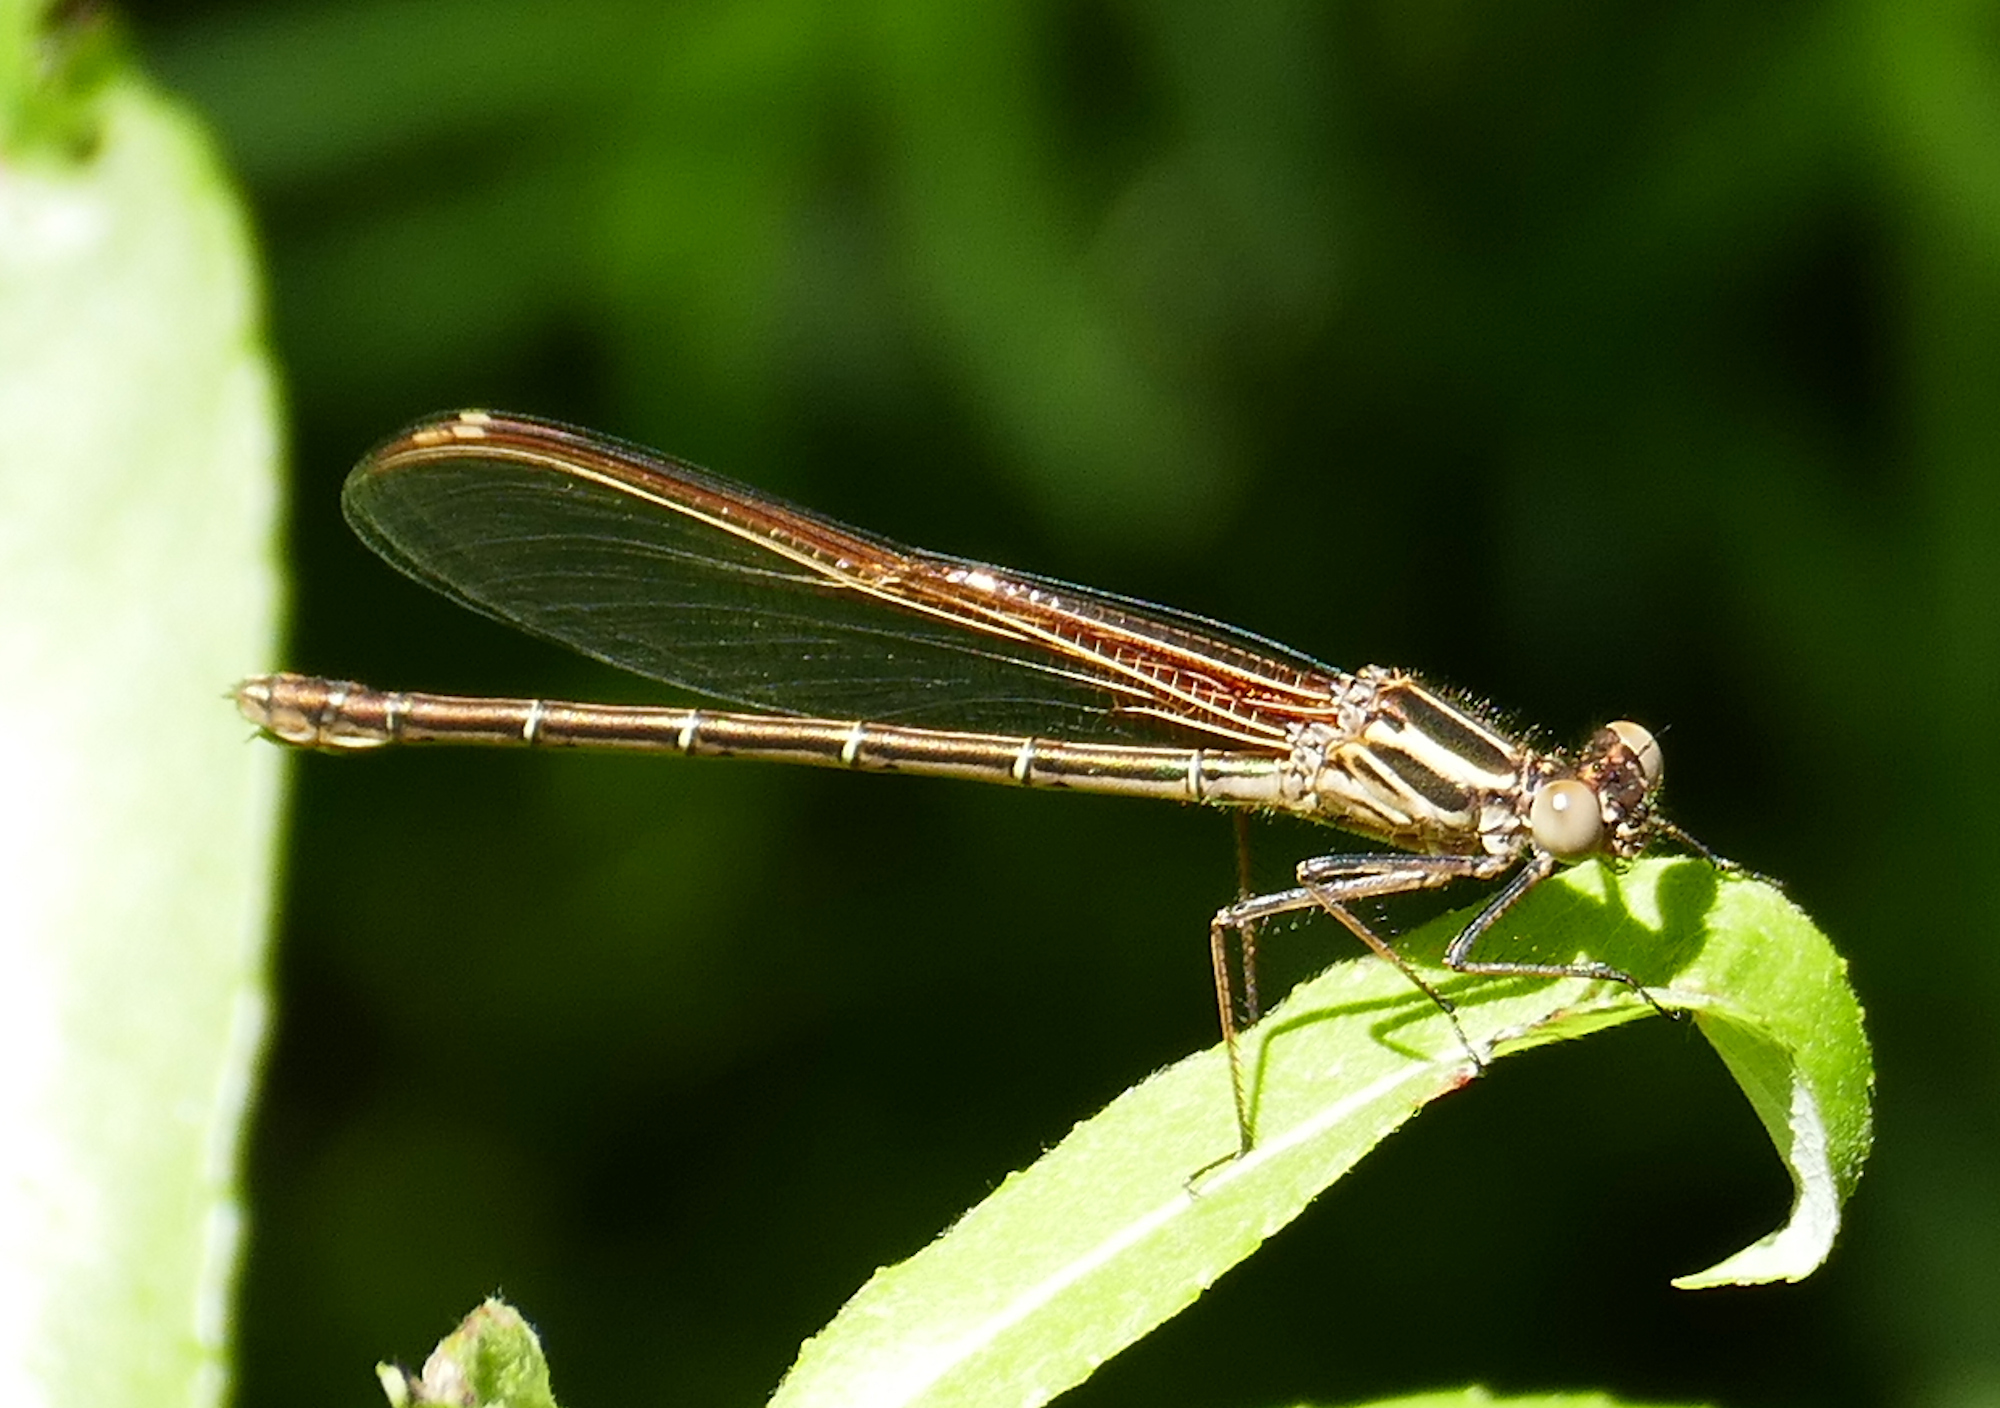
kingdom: Animalia
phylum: Arthropoda
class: Insecta
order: Odonata
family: Calopterygidae
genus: Hetaerina
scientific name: Hetaerina americana
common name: American rubyspot
